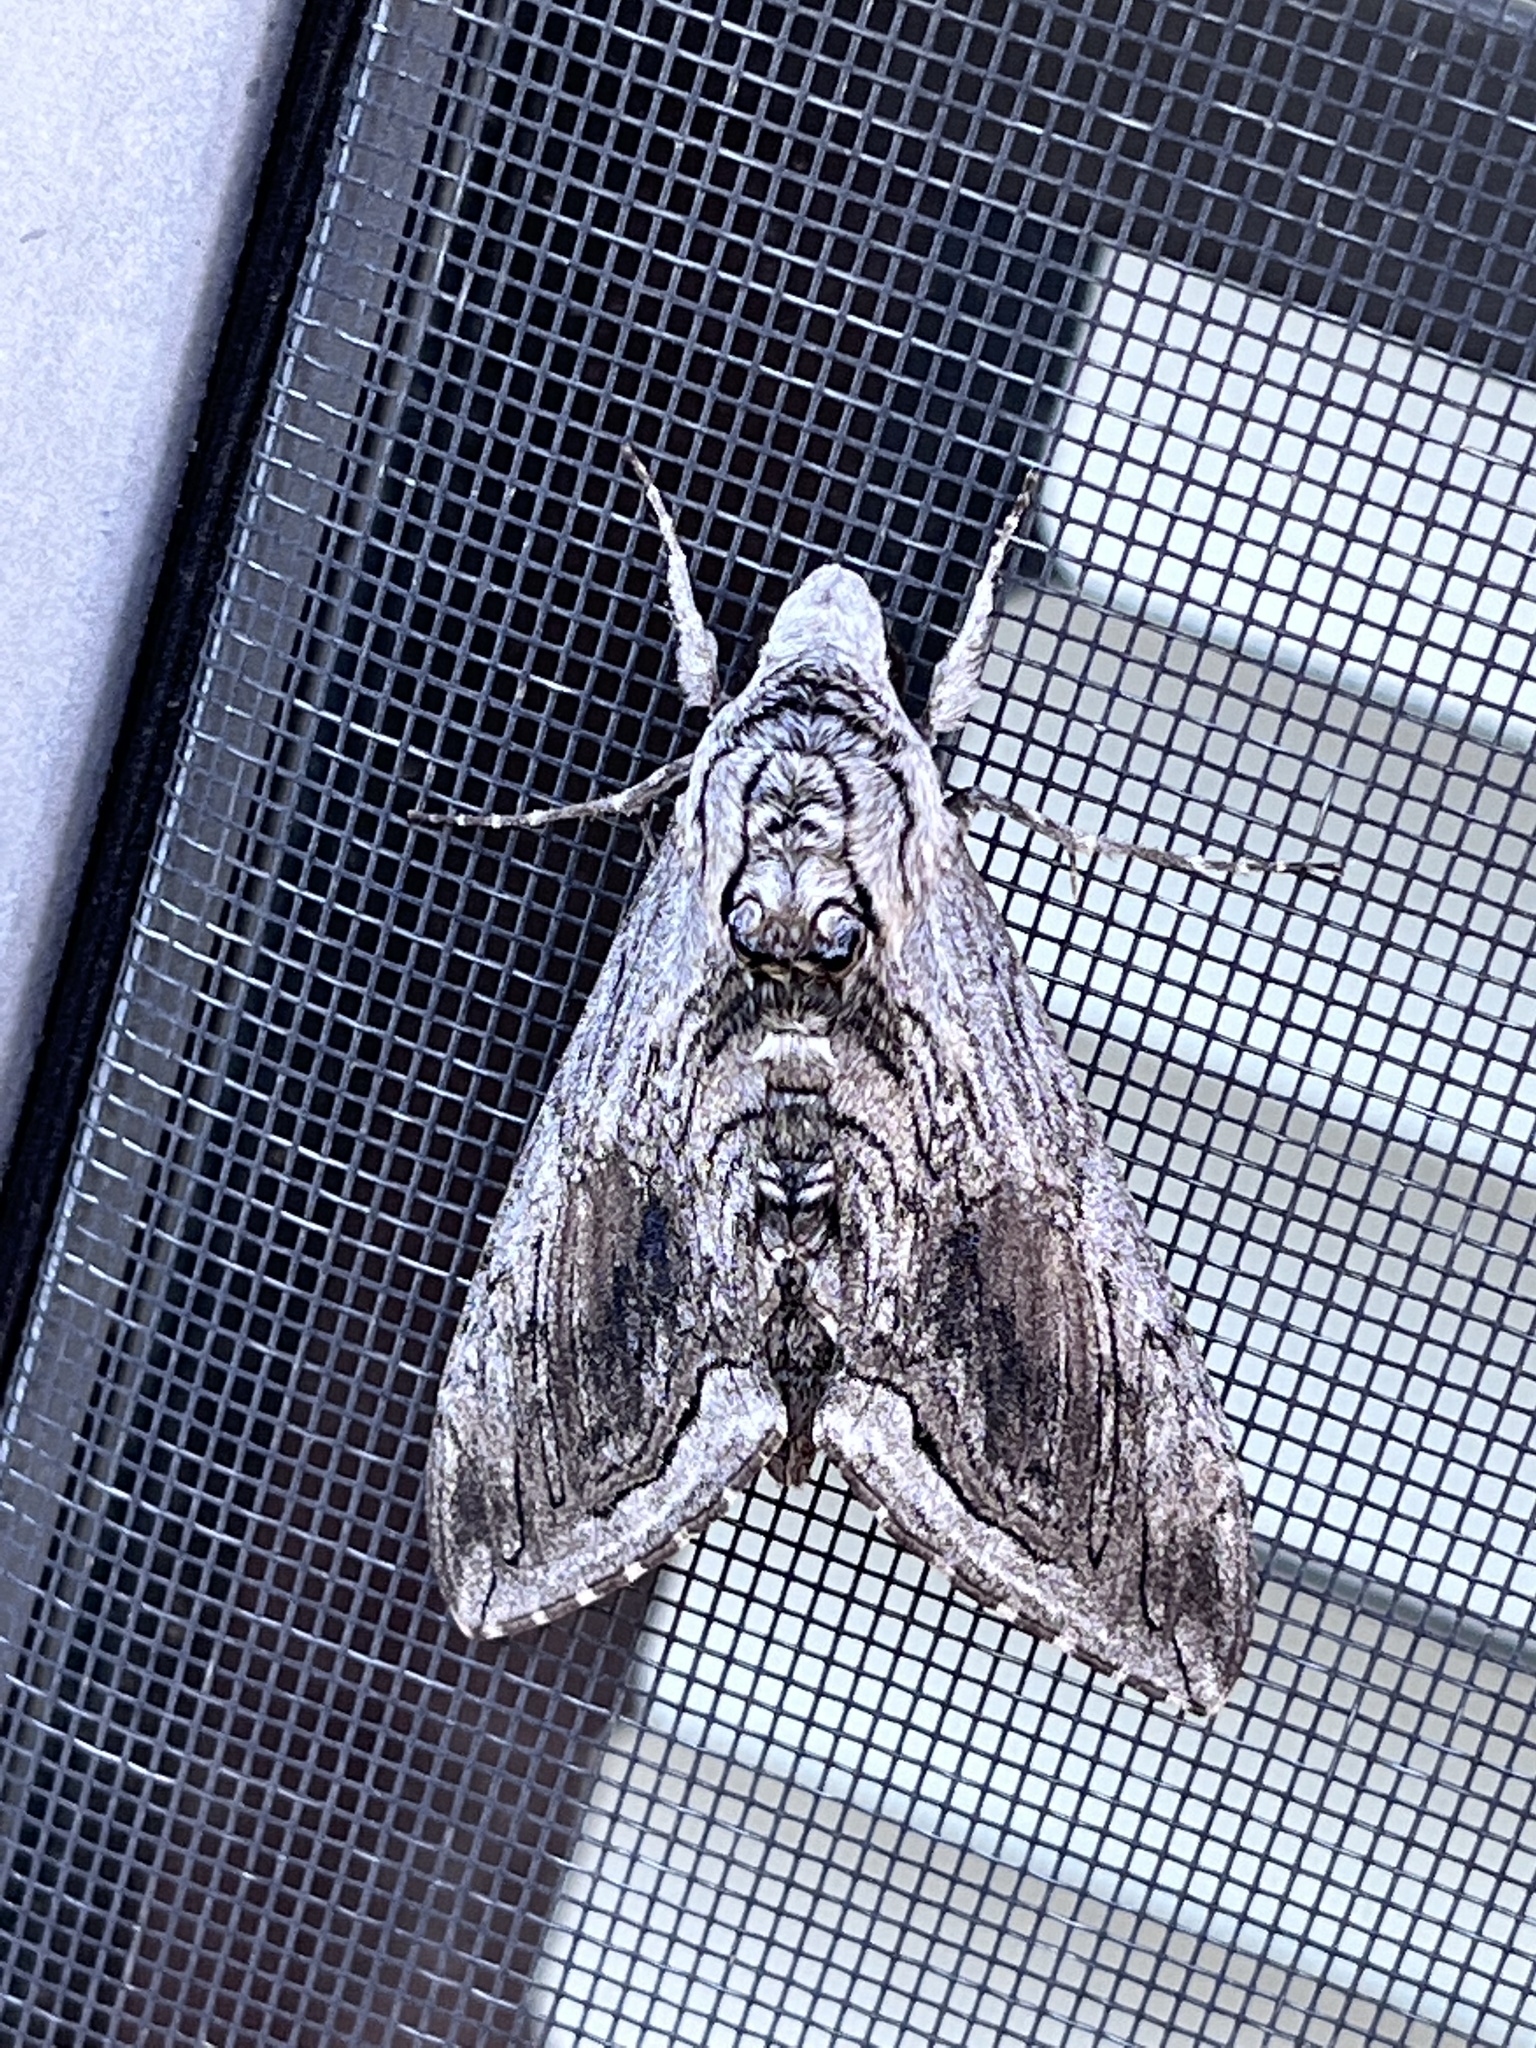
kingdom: Animalia
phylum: Arthropoda
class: Insecta
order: Lepidoptera
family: Sphingidae
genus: Manduca
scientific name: Manduca quinquemaculatus
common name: Five-spotted hawk-moth
